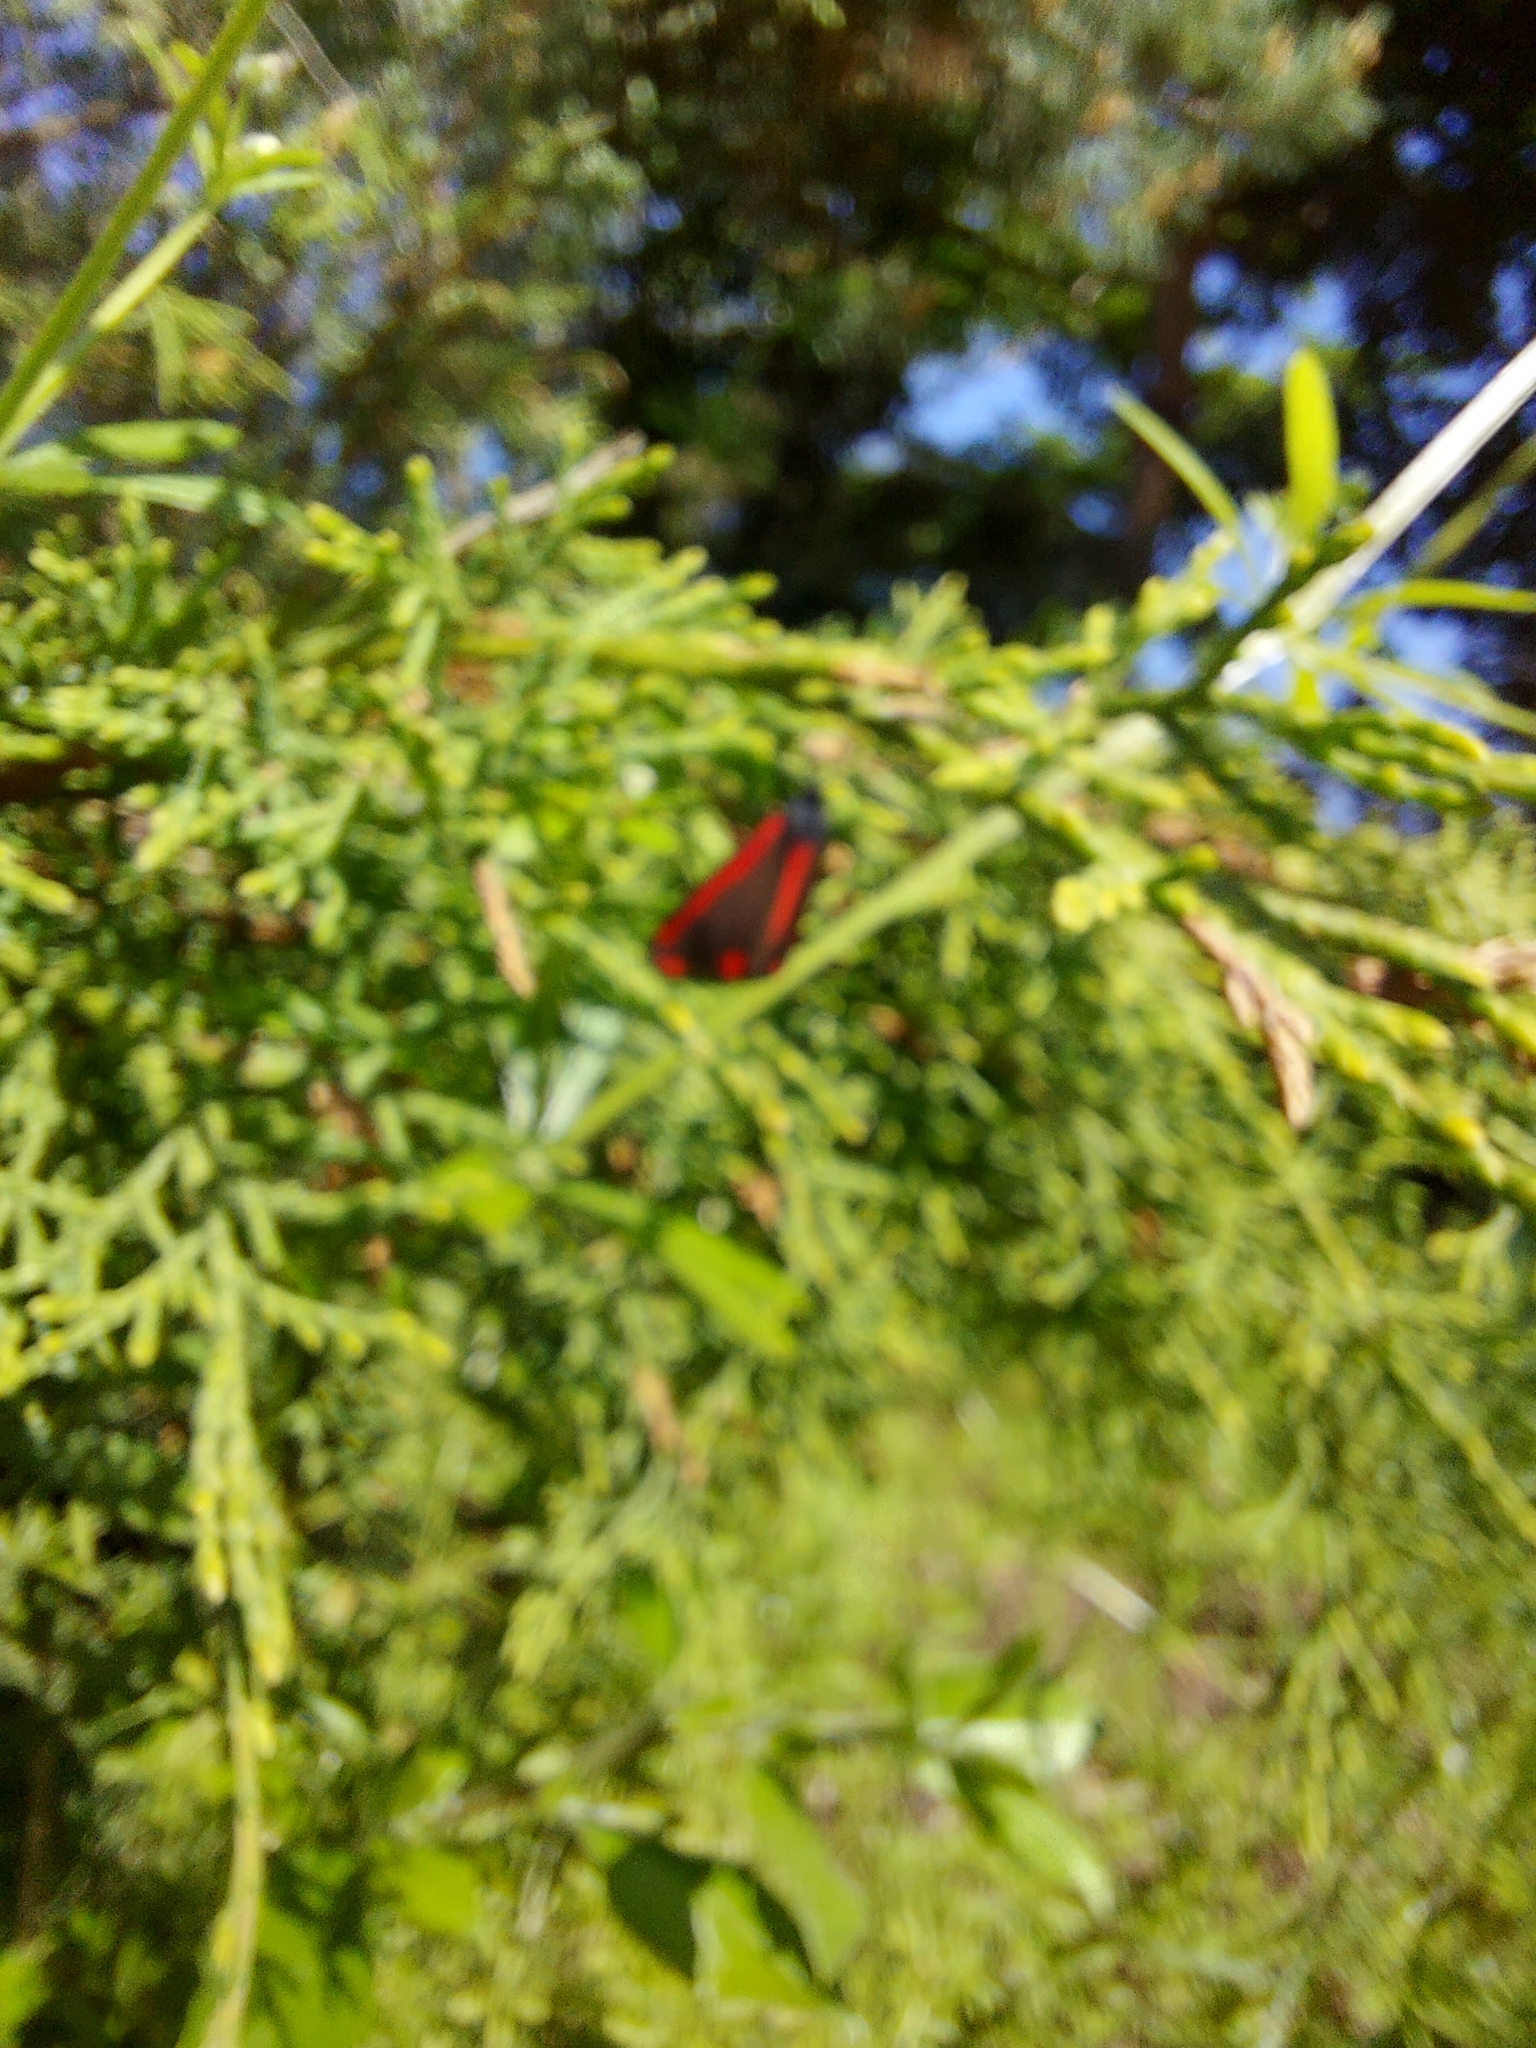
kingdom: Animalia
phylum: Arthropoda
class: Insecta
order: Lepidoptera
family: Erebidae
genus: Tyria
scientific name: Tyria jacobaeae
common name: Cinnabar
